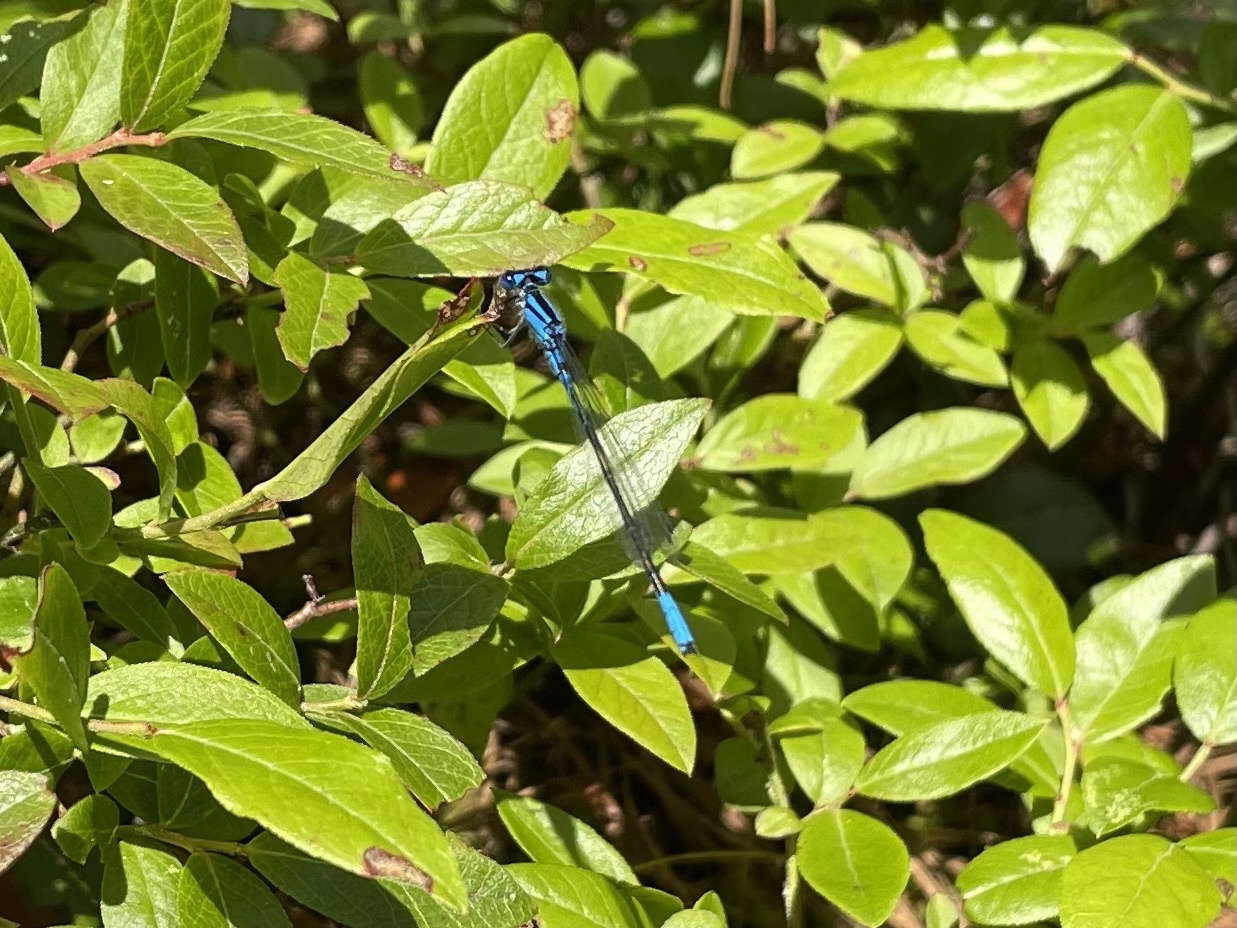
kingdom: Animalia
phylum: Arthropoda
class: Insecta
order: Odonata
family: Coenagrionidae
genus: Enallagma
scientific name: Enallagma aspersum
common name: Azure bluet
